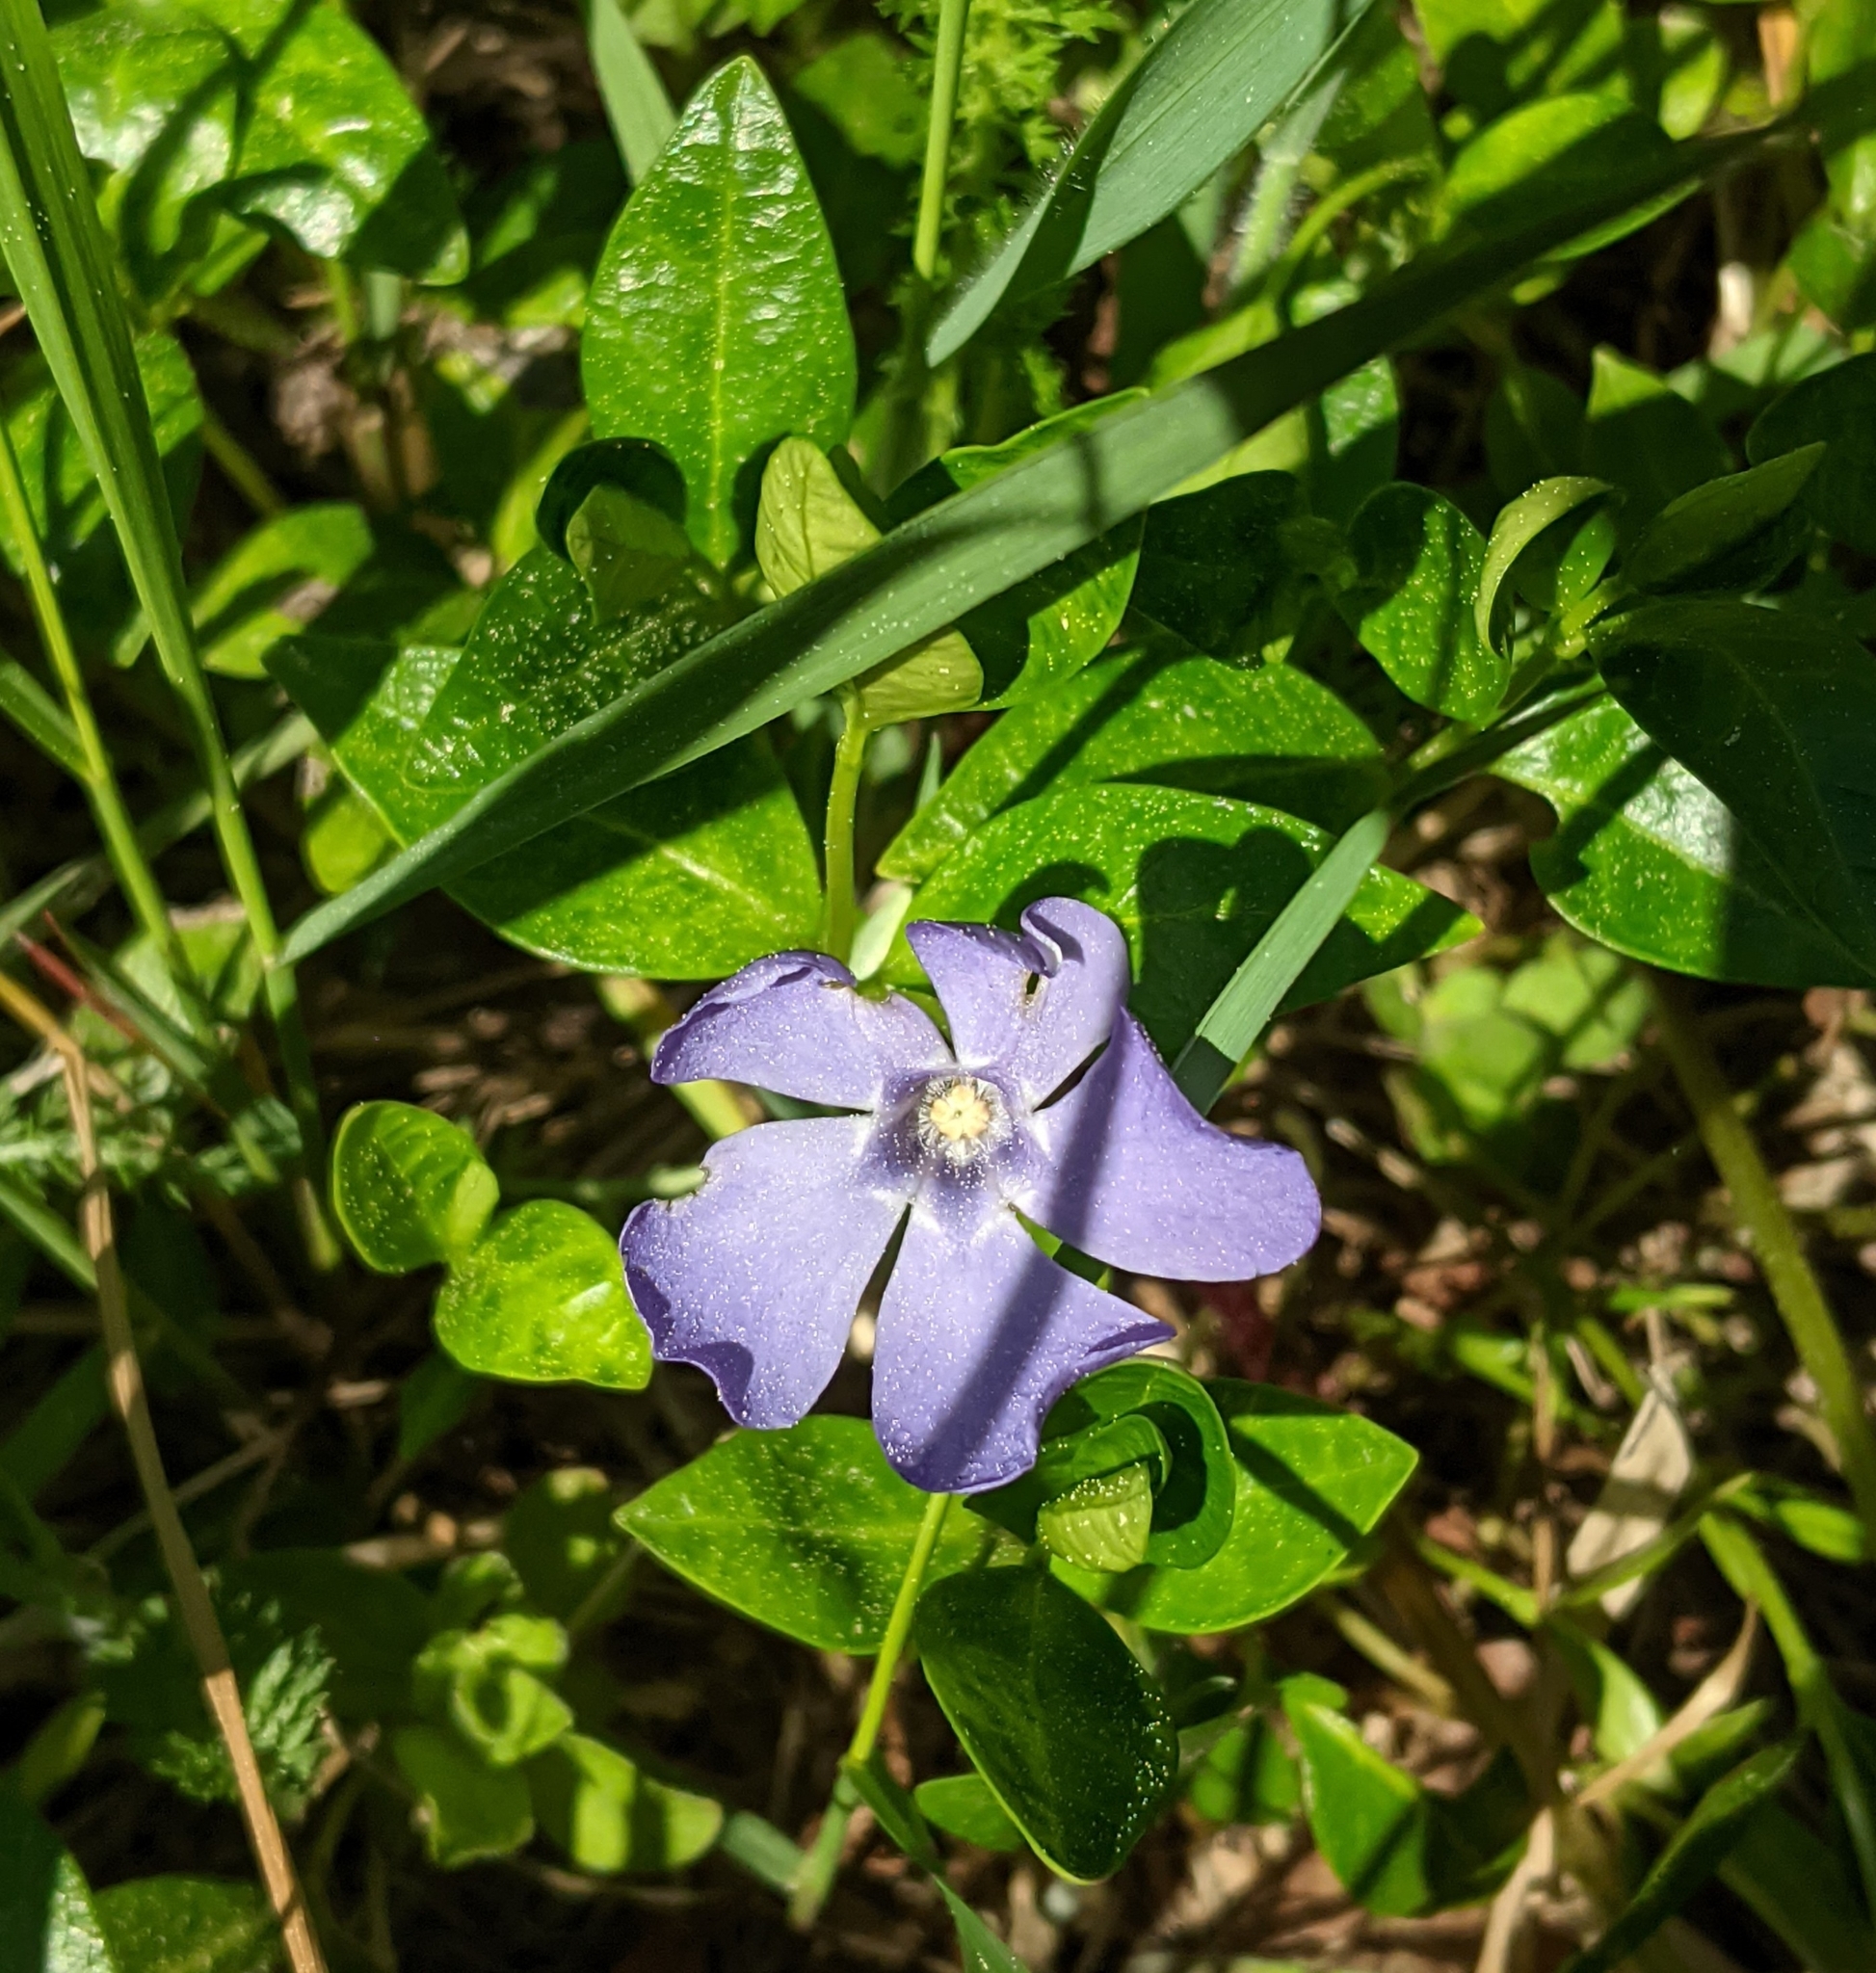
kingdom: Plantae
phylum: Tracheophyta
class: Magnoliopsida
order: Gentianales
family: Apocynaceae
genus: Vinca
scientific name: Vinca minor
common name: Lesser periwinkle
